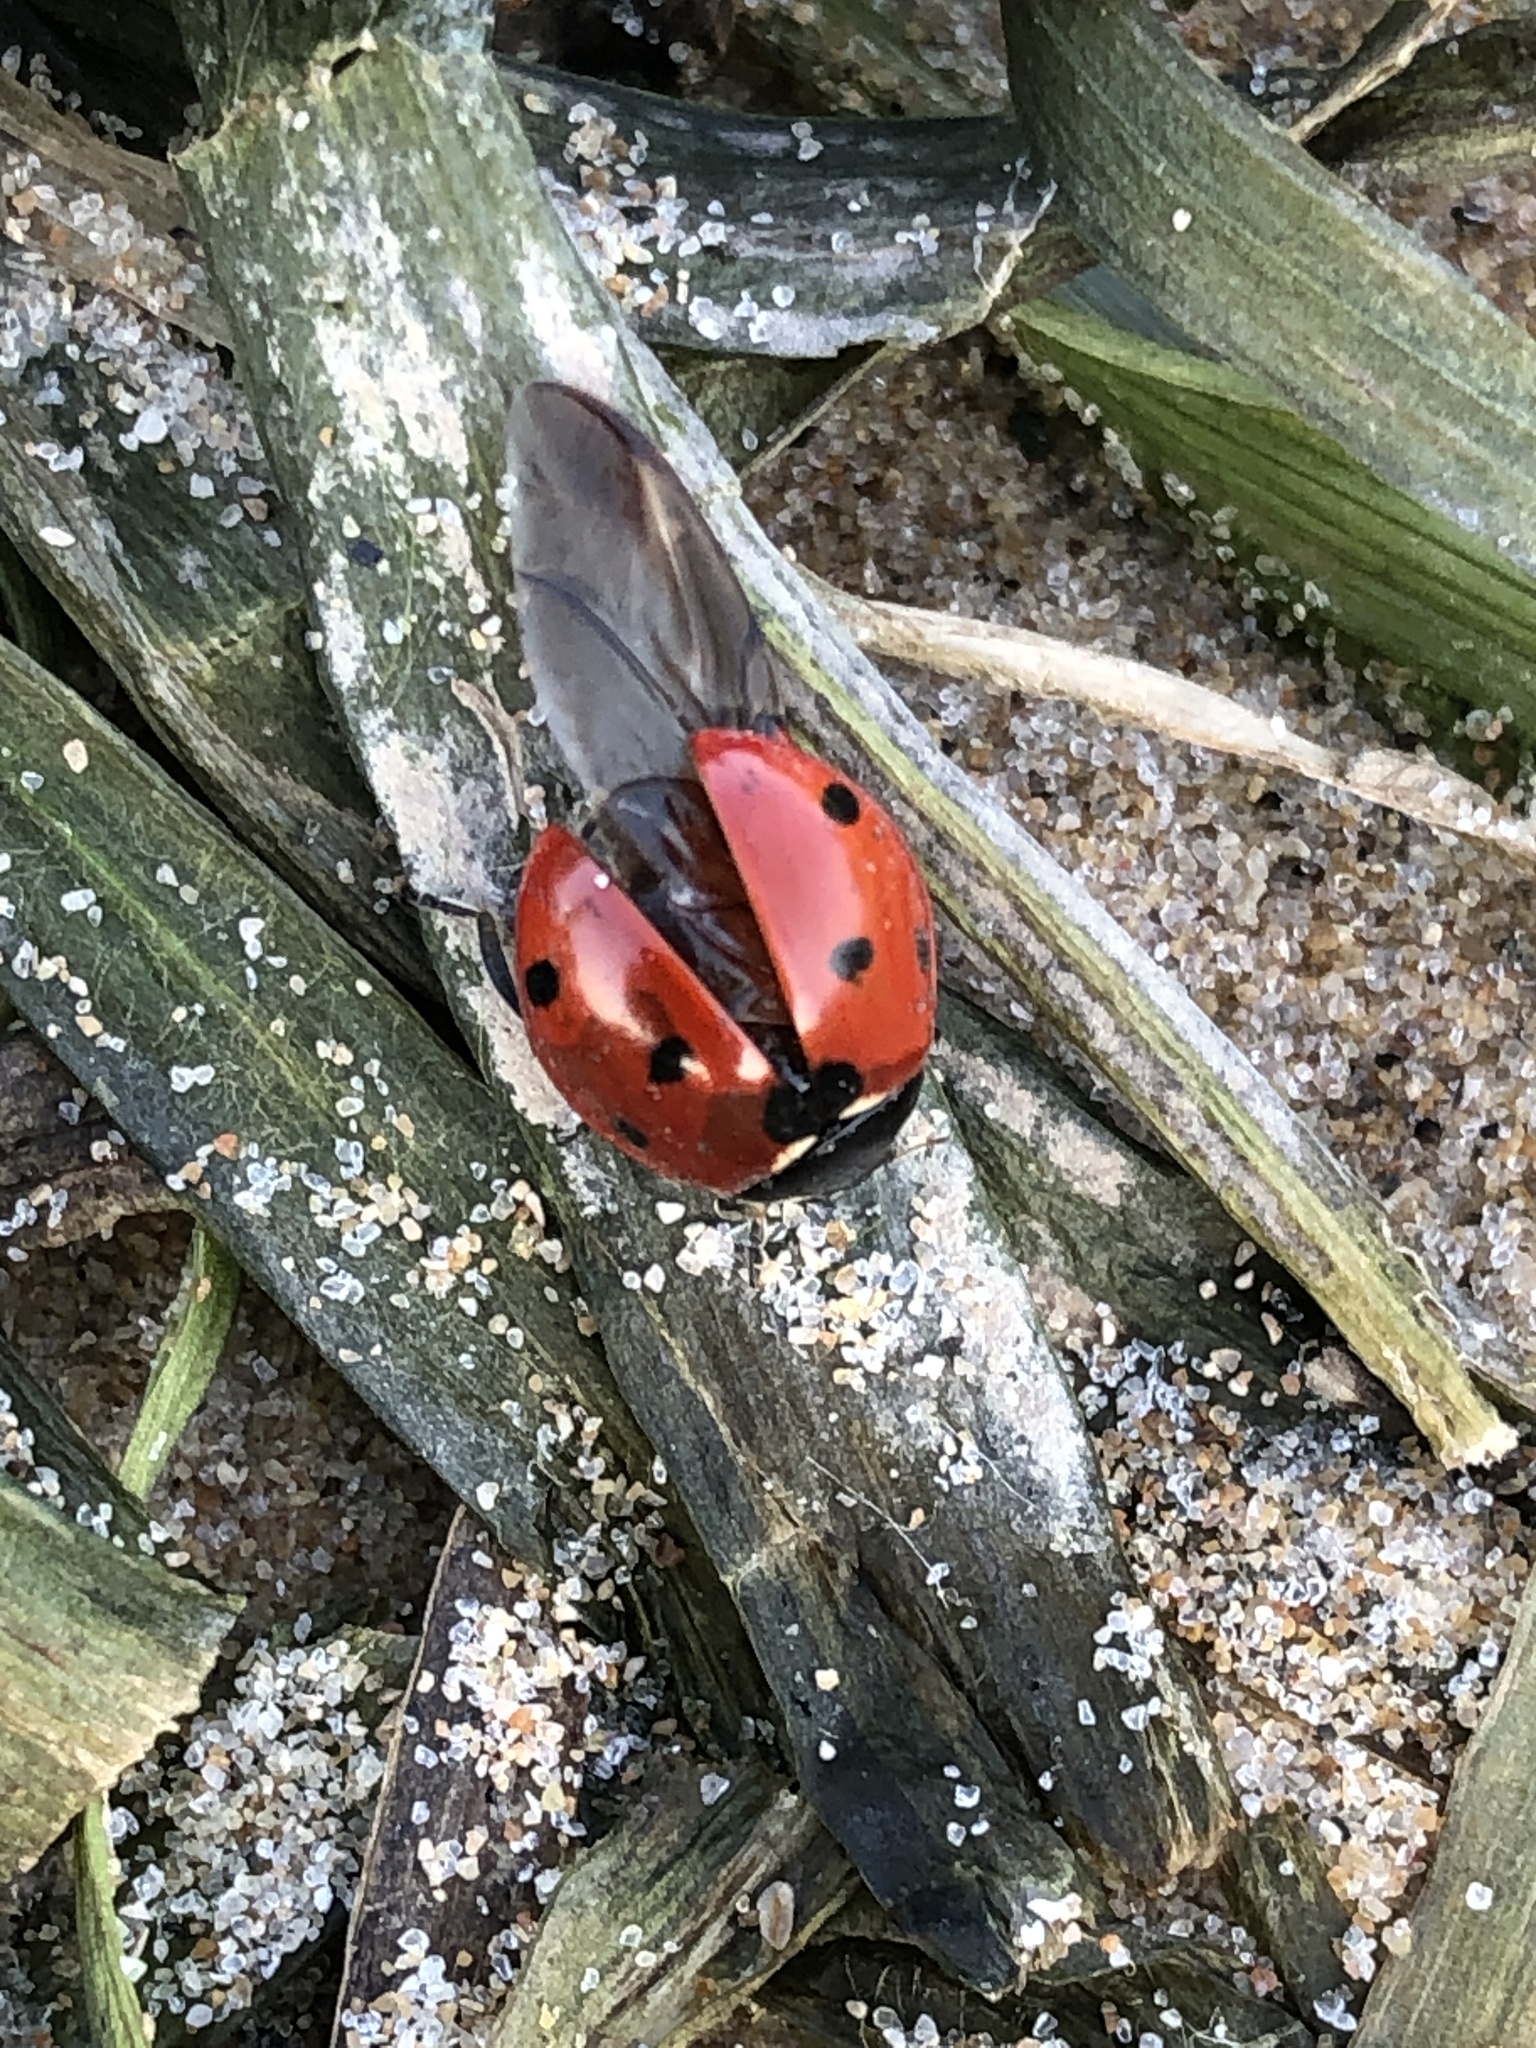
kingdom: Animalia
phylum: Arthropoda
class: Insecta
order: Coleoptera
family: Coccinellidae
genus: Coccinella
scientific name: Coccinella septempunctata
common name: Sevenspotted lady beetle
